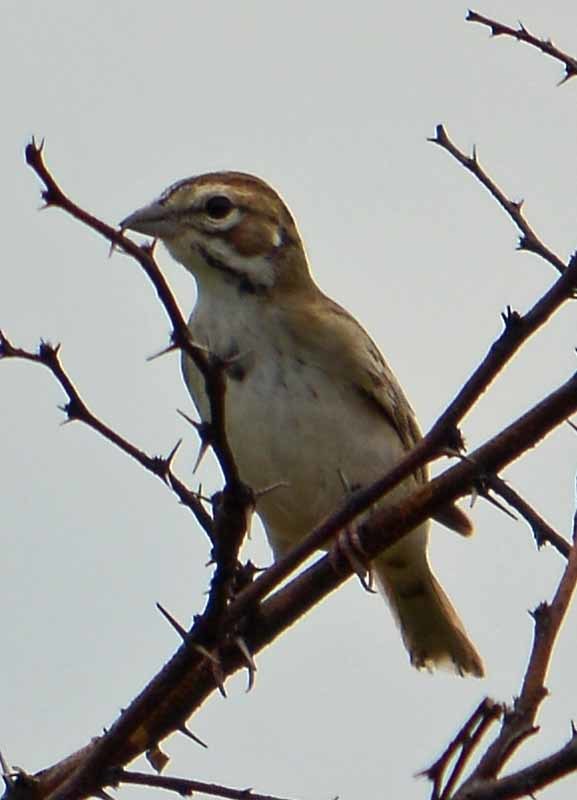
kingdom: Animalia
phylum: Chordata
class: Aves
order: Passeriformes
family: Passerellidae
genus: Chondestes
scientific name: Chondestes grammacus
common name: Lark sparrow
